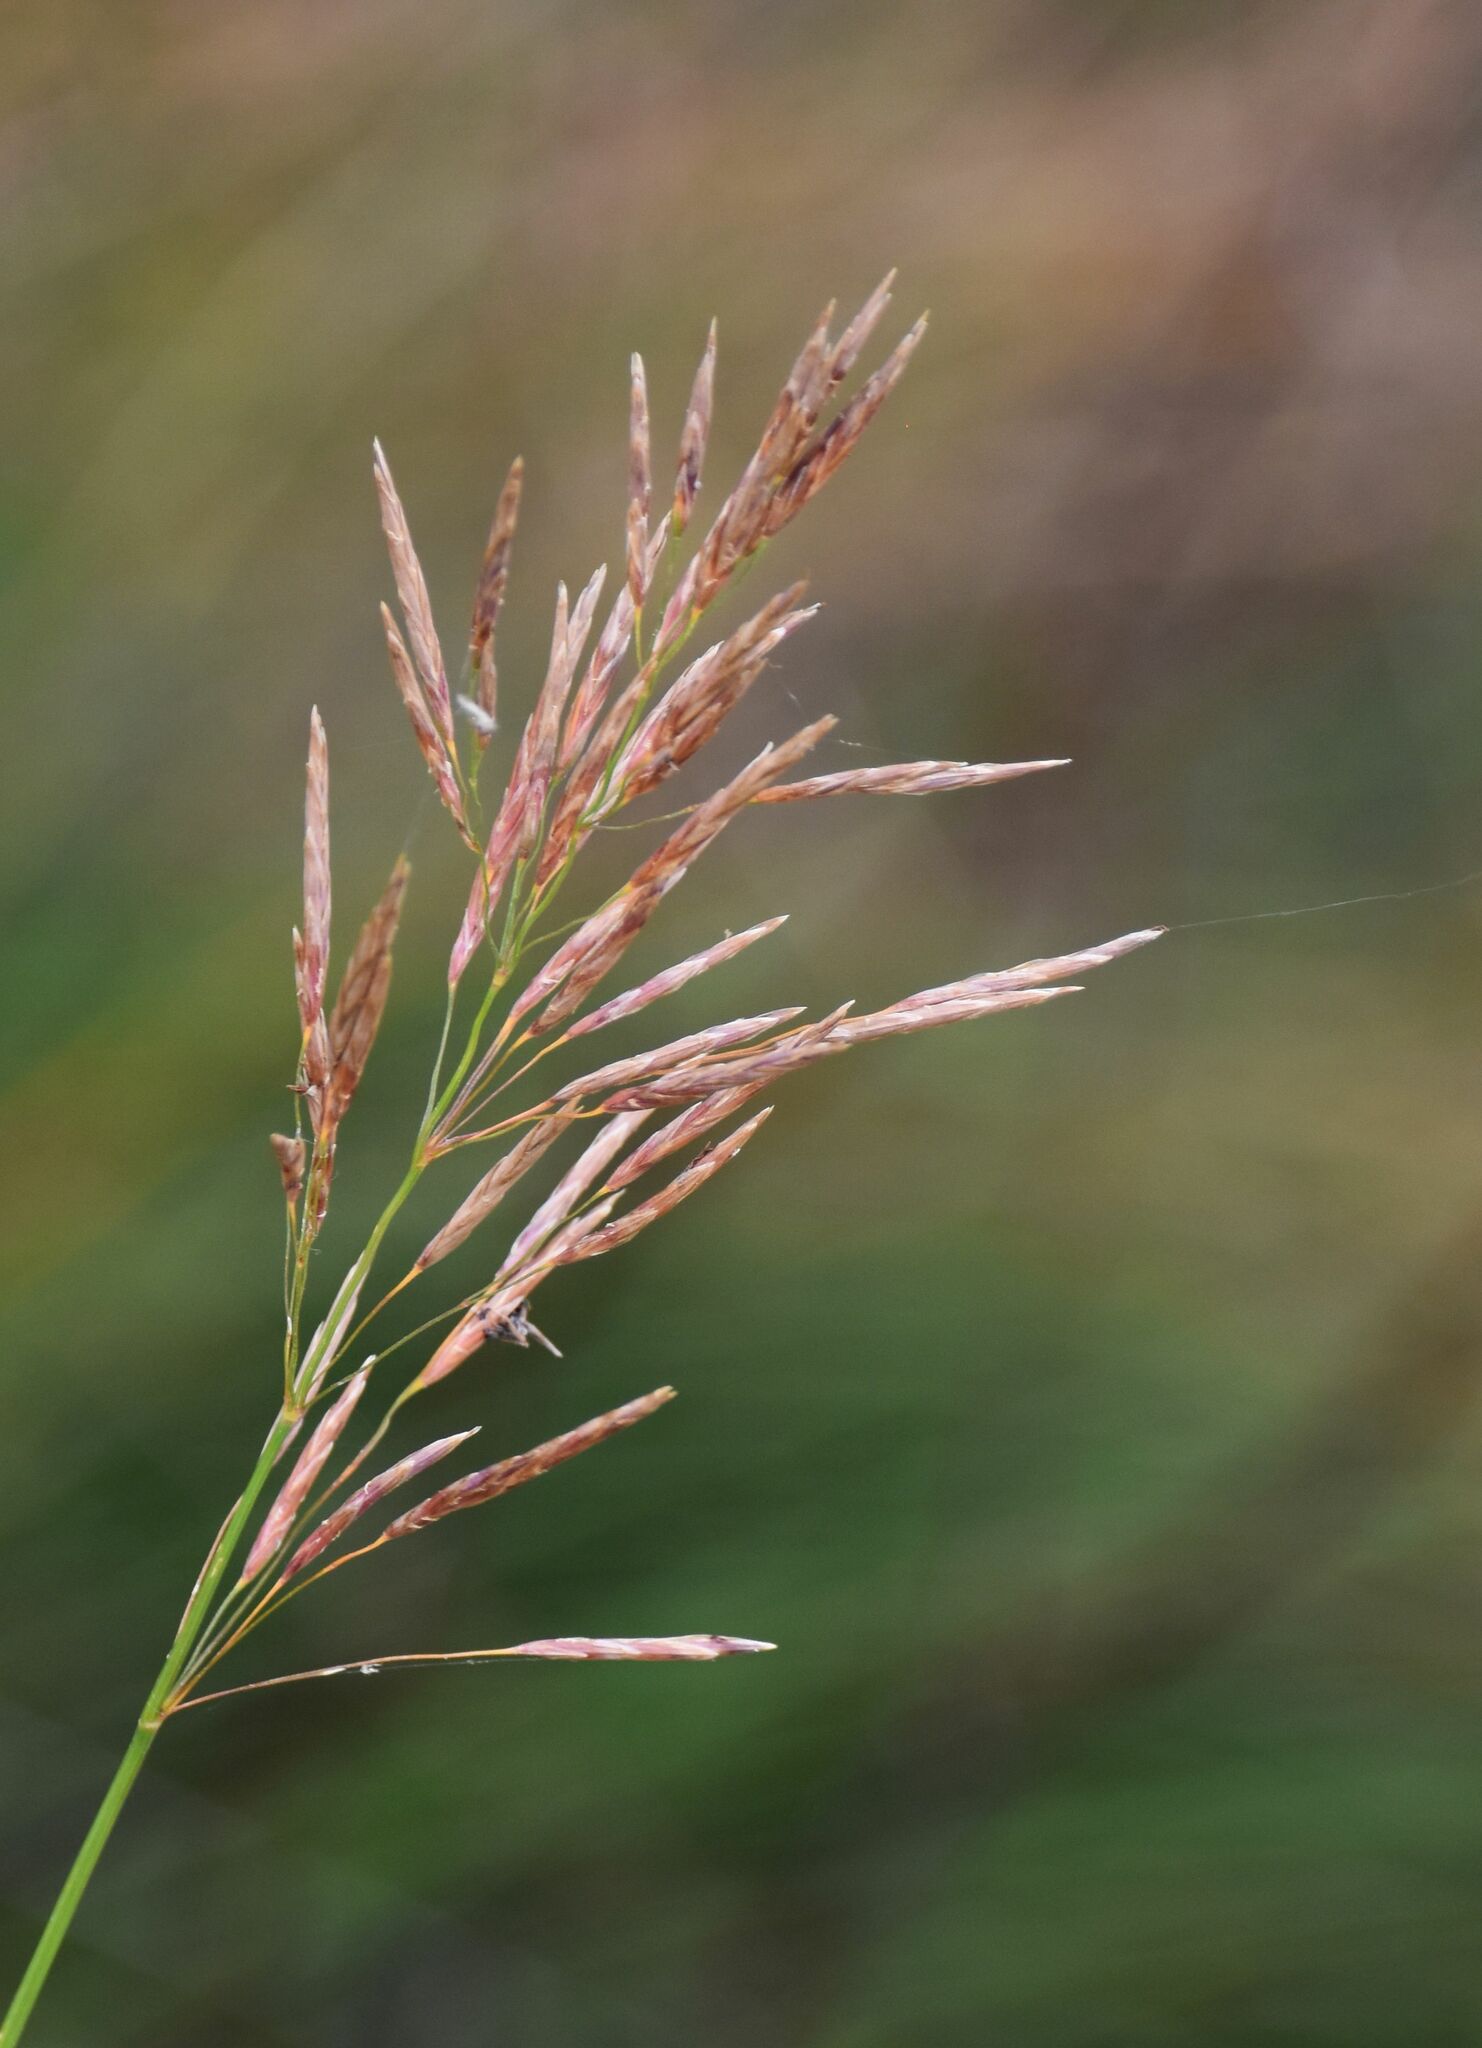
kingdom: Plantae
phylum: Tracheophyta
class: Liliopsida
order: Poales
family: Poaceae
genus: Bromus
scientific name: Bromus inermis
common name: Smooth brome
